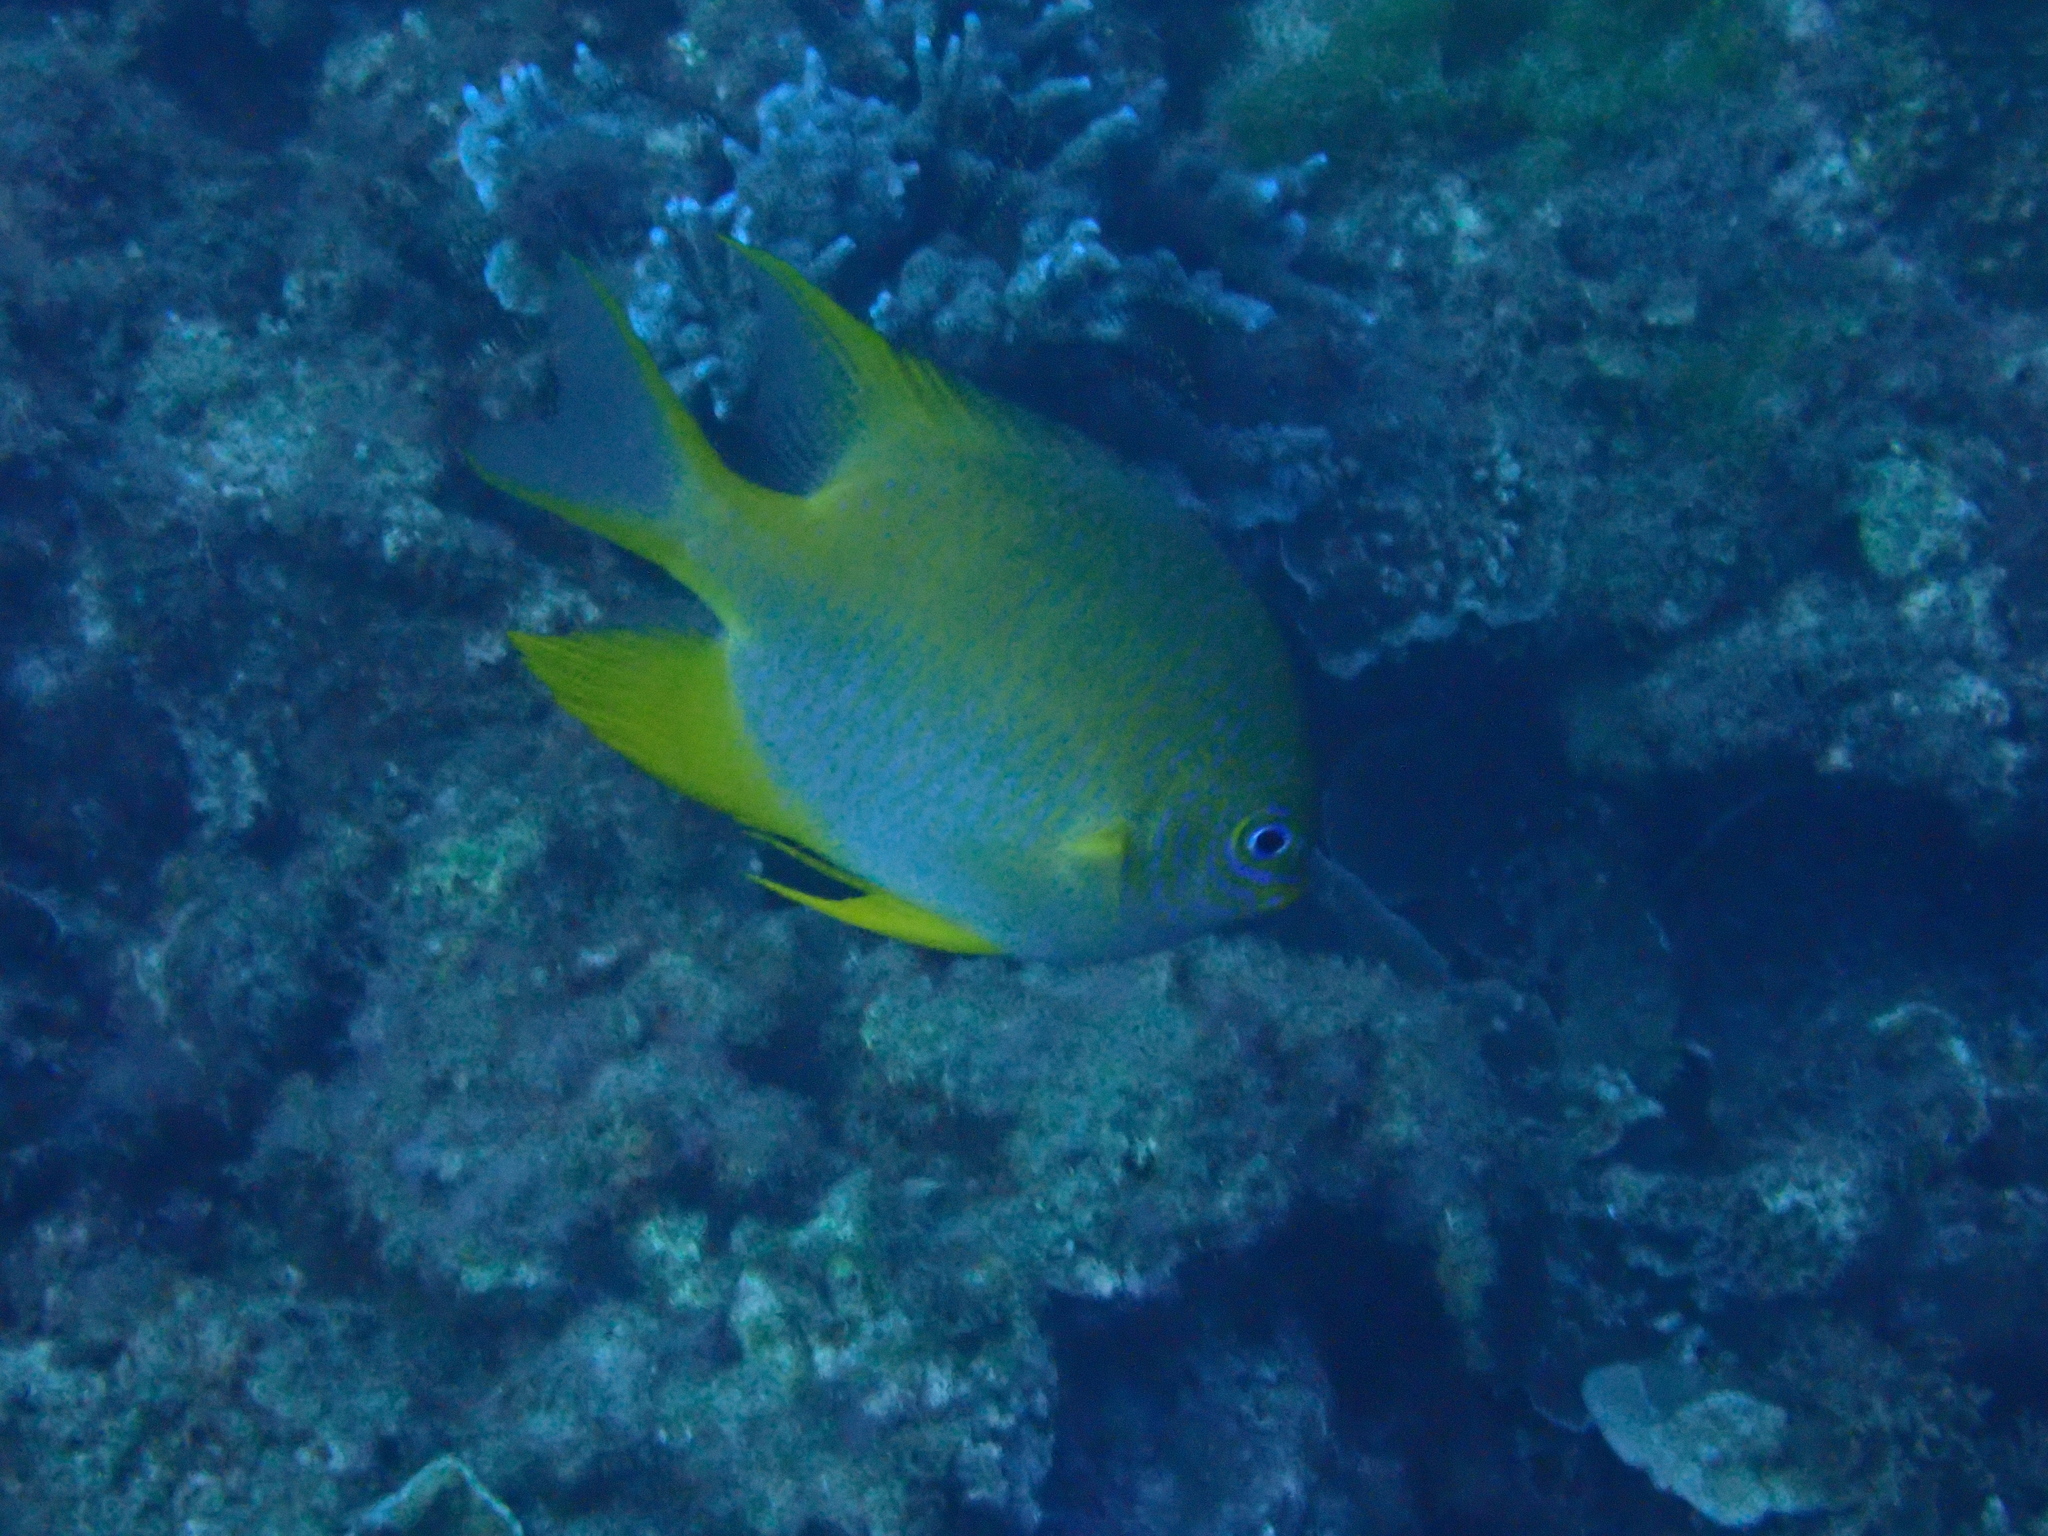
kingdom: Animalia
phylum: Chordata
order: Perciformes
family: Pomacentridae
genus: Amblyglyphidodon
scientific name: Amblyglyphidodon aureus
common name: Golden damsel
